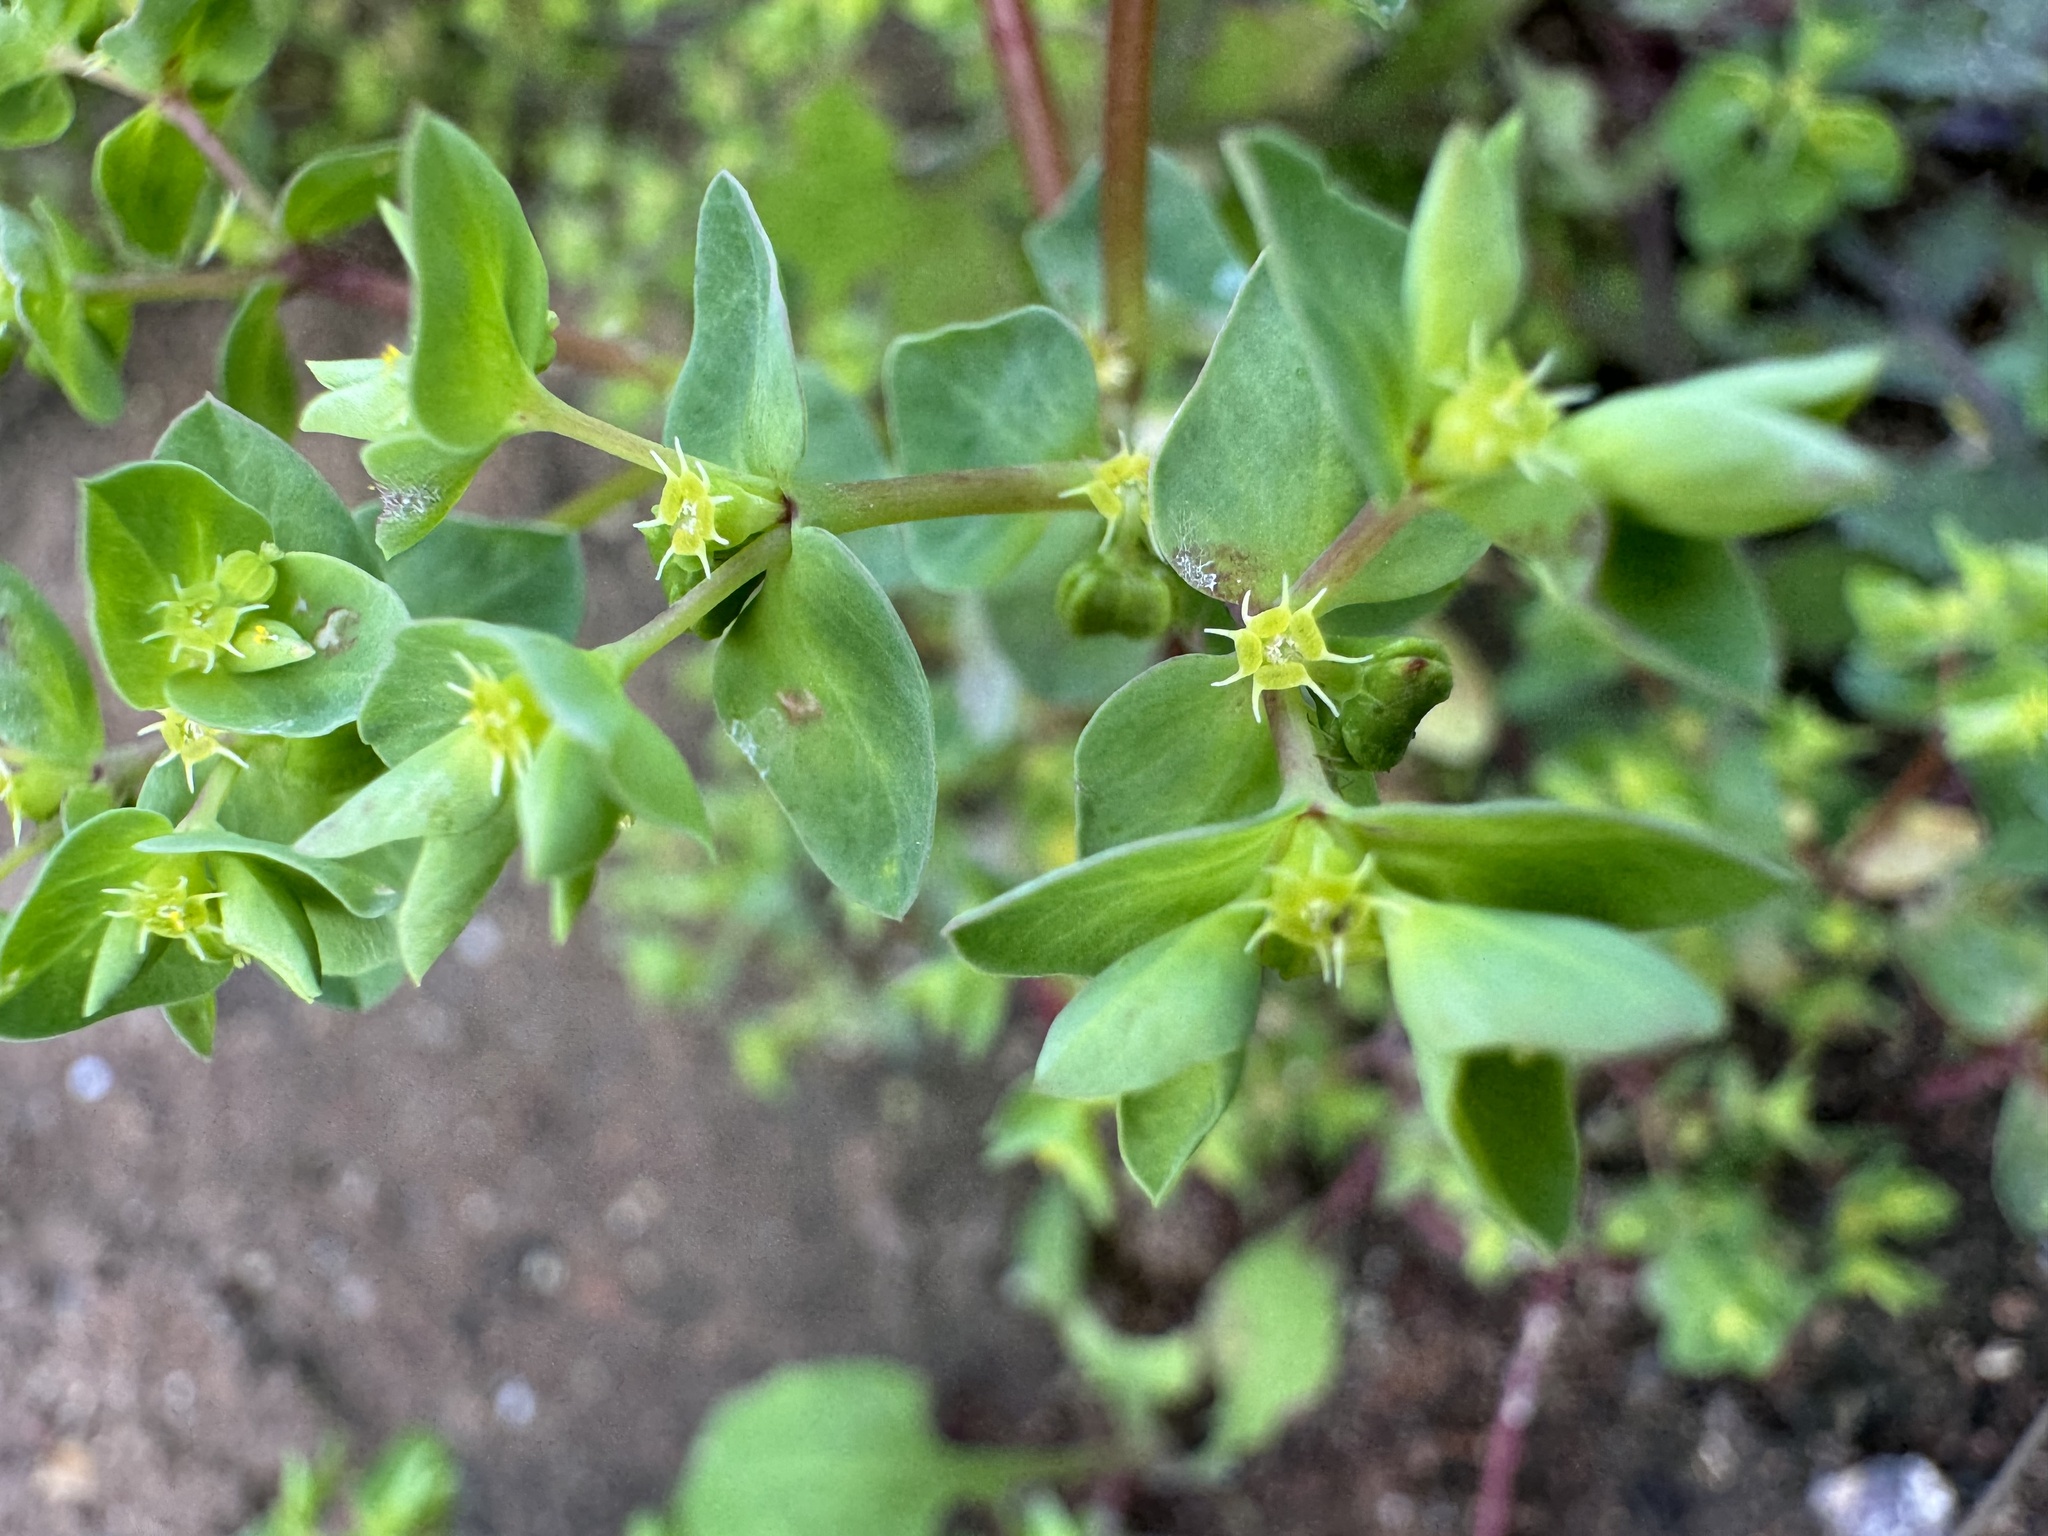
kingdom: Plantae
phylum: Tracheophyta
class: Magnoliopsida
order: Malpighiales
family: Euphorbiaceae
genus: Euphorbia
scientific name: Euphorbia peplus
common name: Petty spurge
